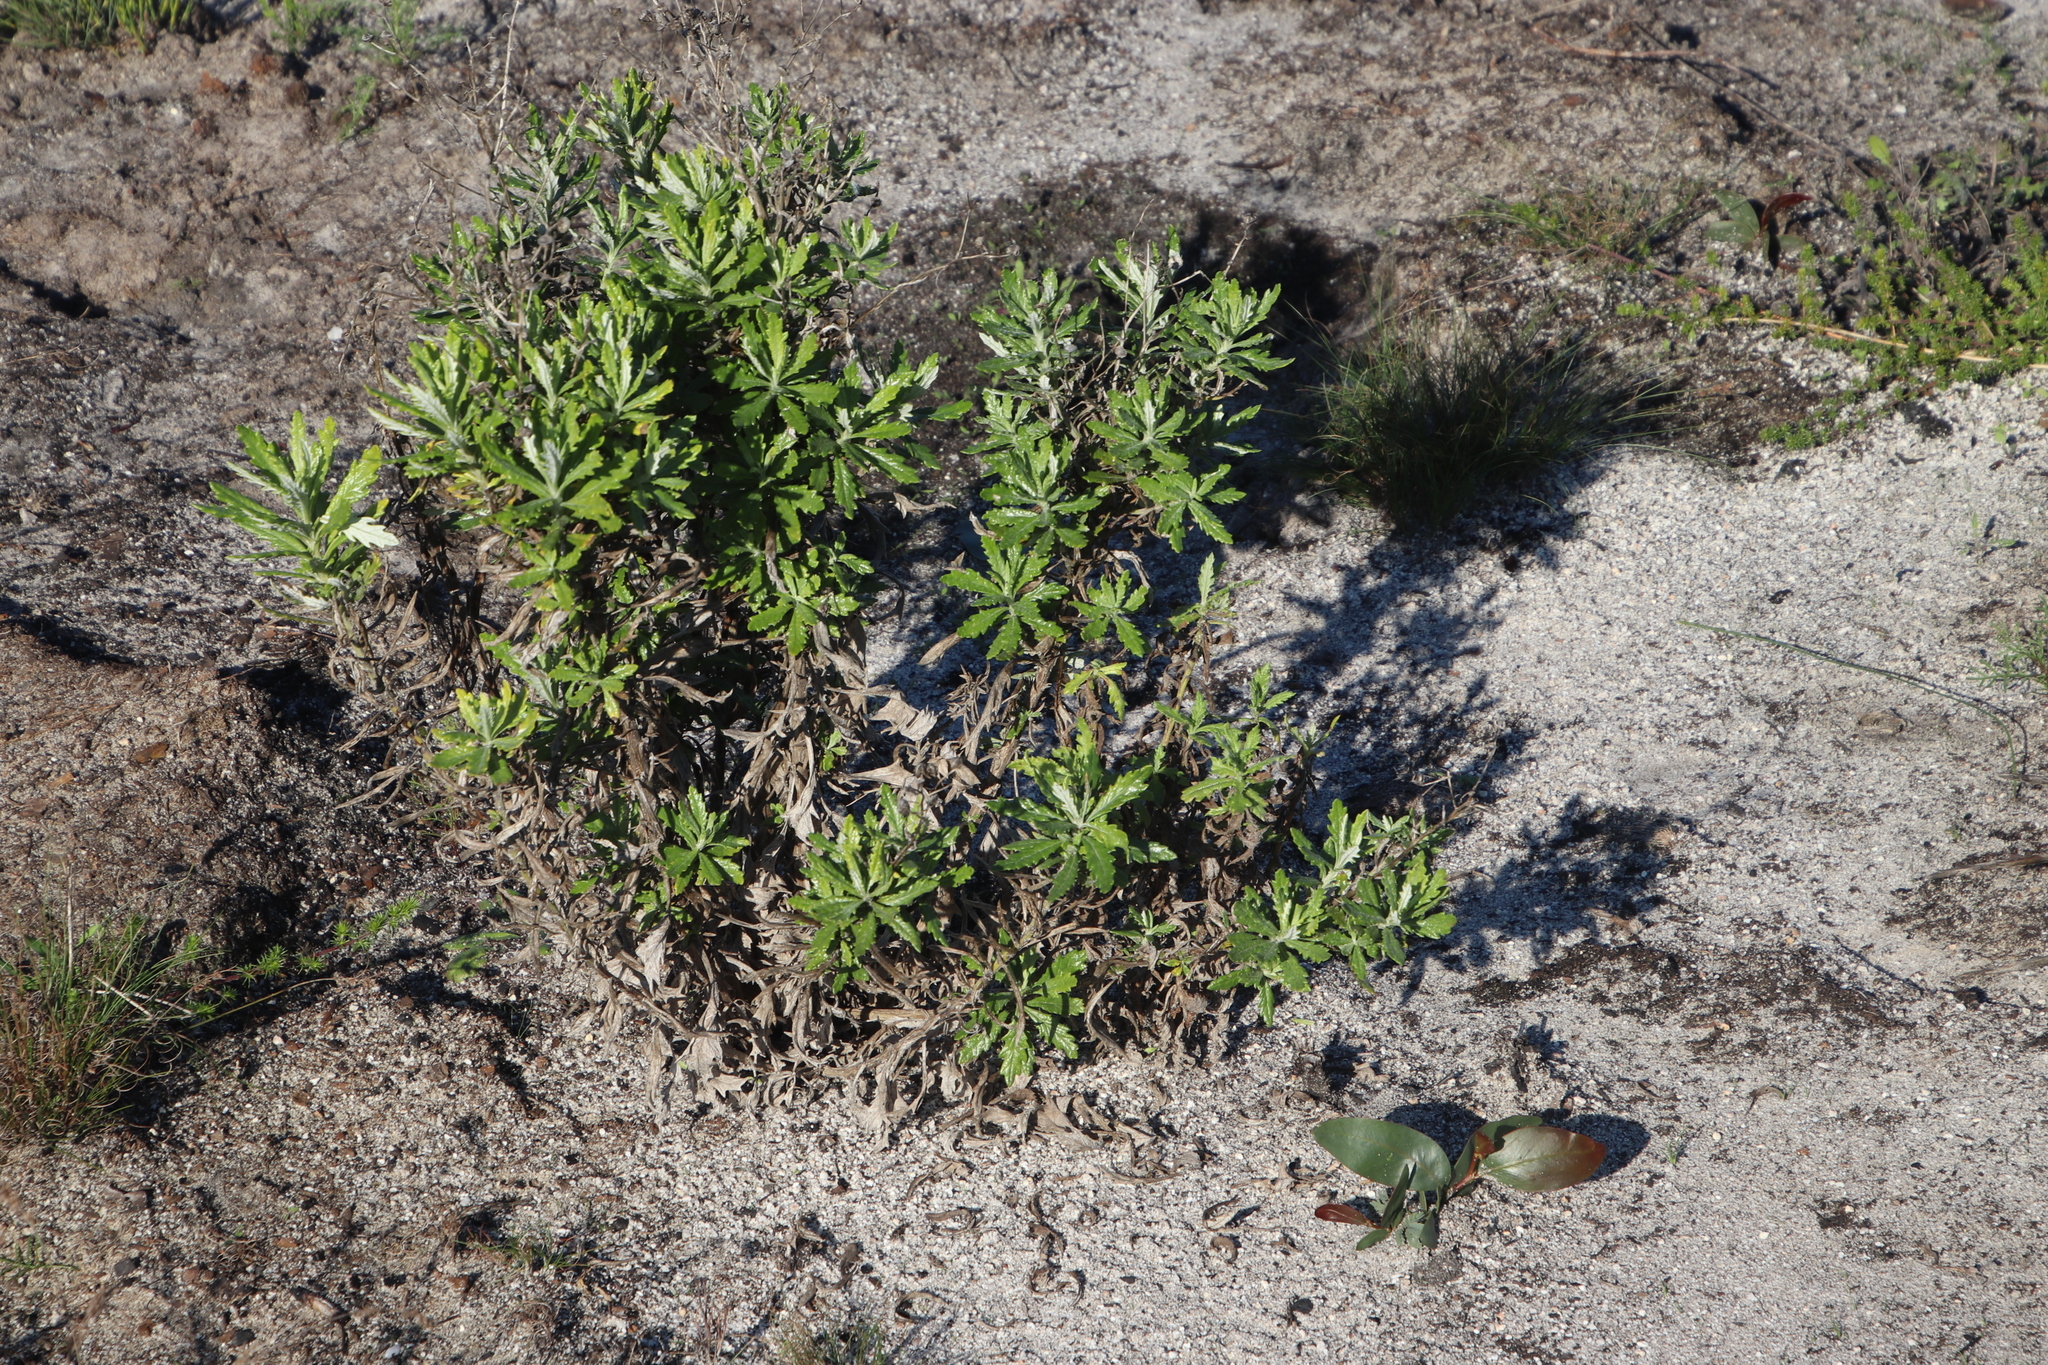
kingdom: Plantae
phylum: Tracheophyta
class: Magnoliopsida
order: Asterales
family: Asteraceae
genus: Senecio
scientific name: Senecio pterophorus
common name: Shoddy ragwort
